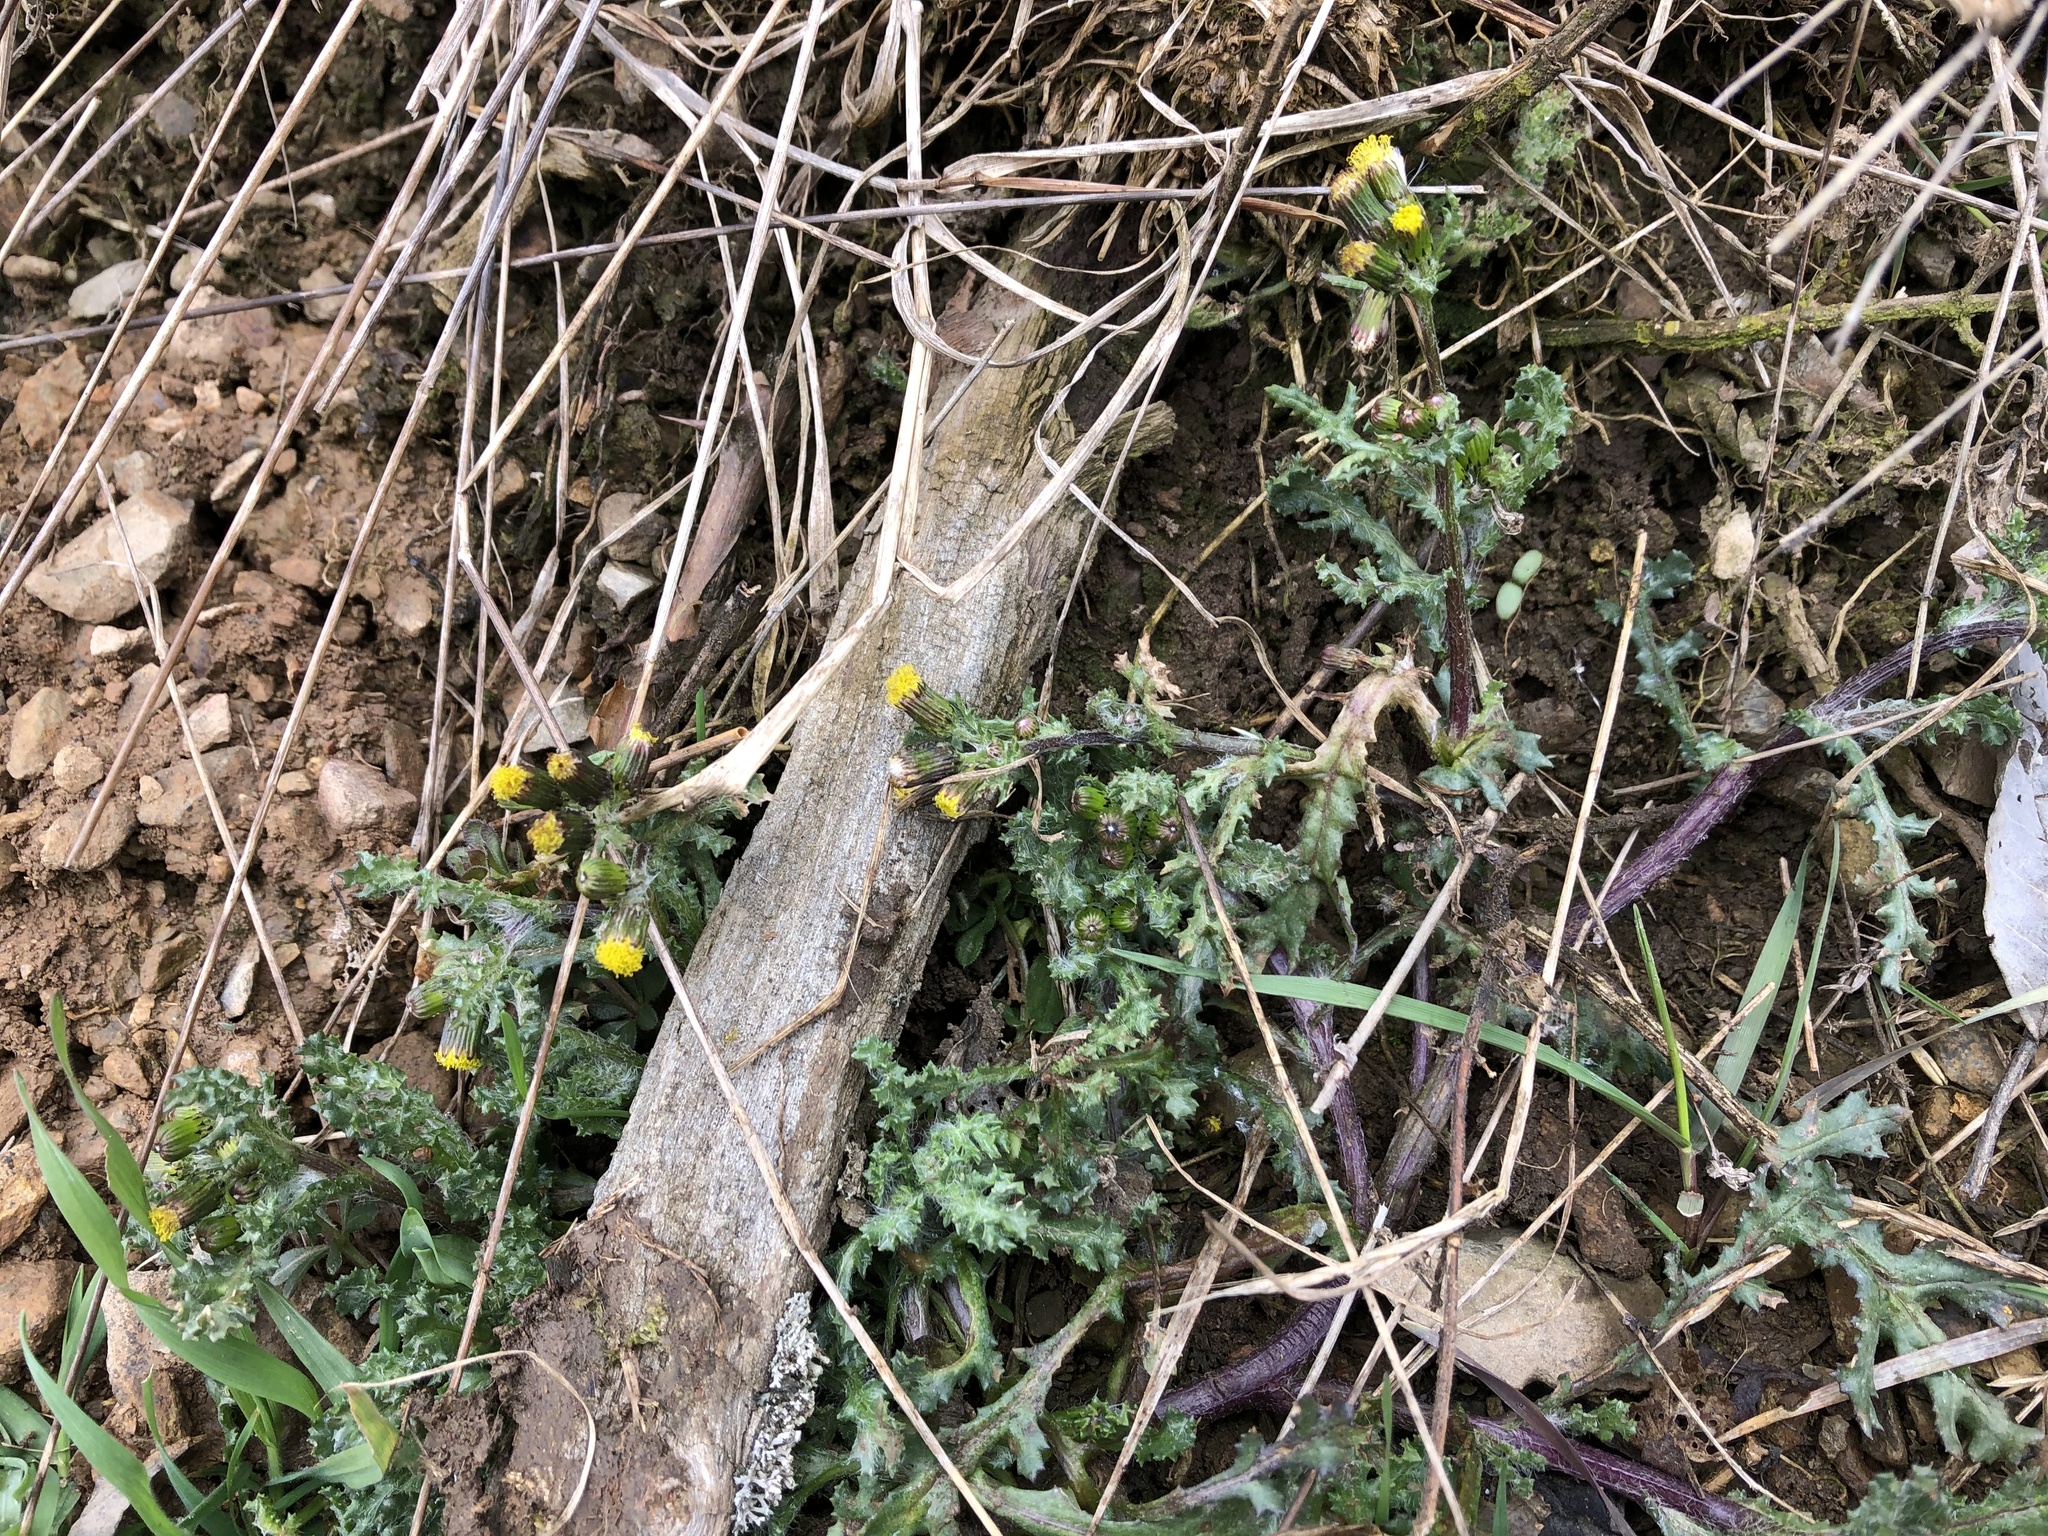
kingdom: Plantae
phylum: Tracheophyta
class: Magnoliopsida
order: Asterales
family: Asteraceae
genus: Senecio
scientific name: Senecio vulgaris
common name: Old-man-in-the-spring
